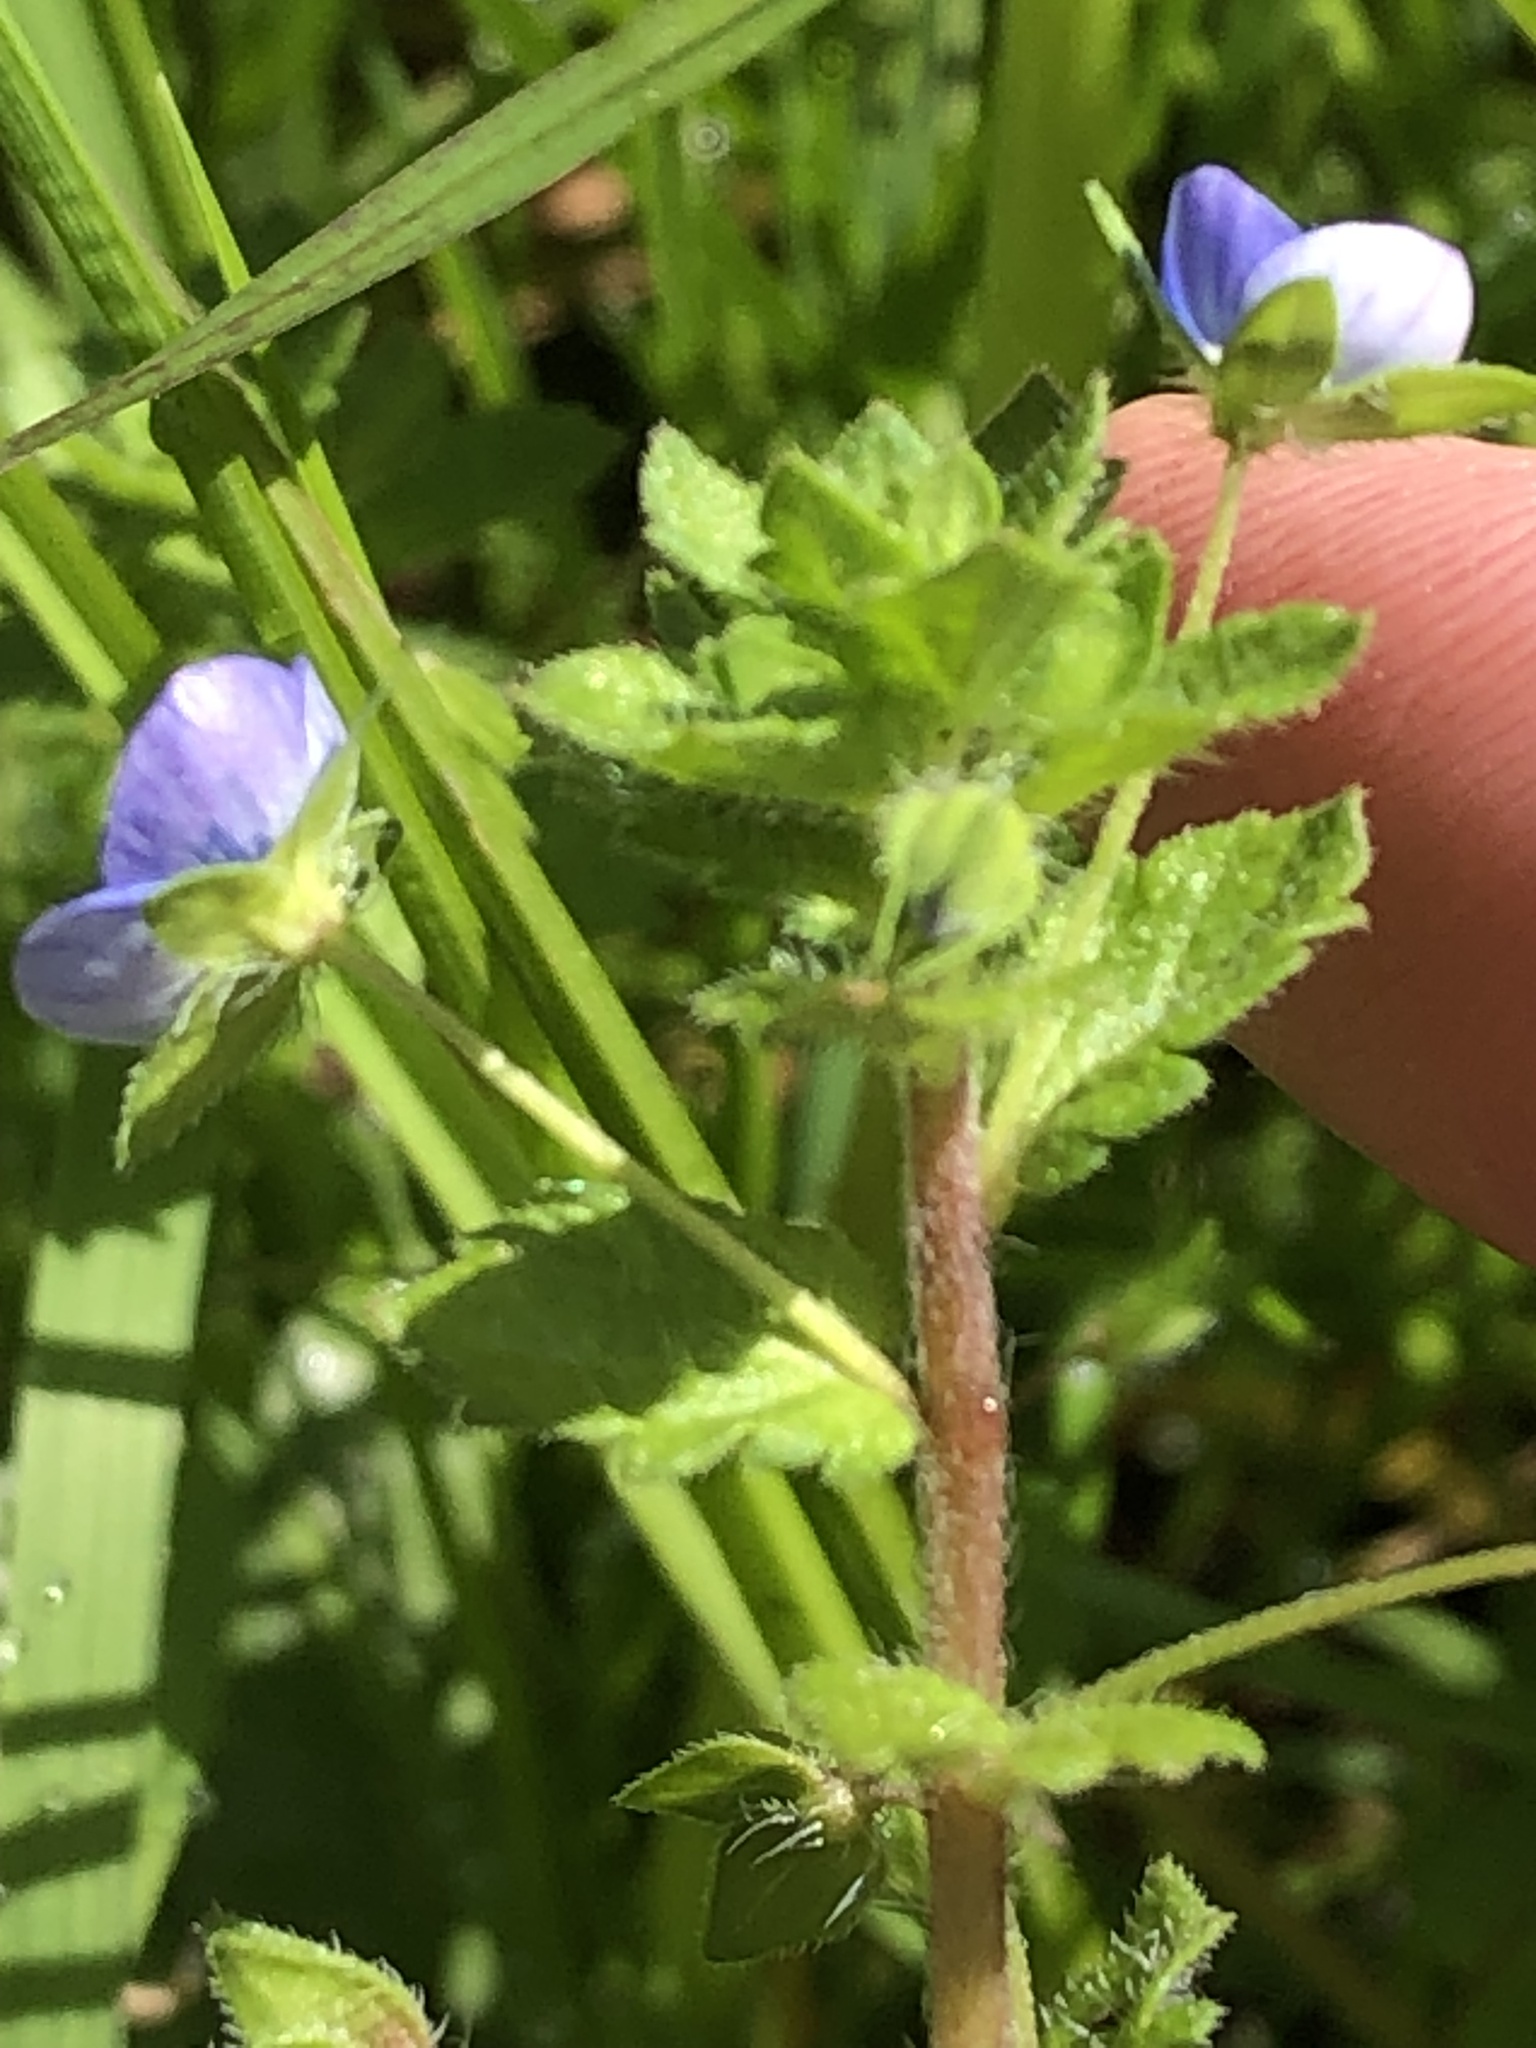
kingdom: Plantae
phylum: Tracheophyta
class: Magnoliopsida
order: Lamiales
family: Plantaginaceae
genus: Veronica
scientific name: Veronica persica
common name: Common field-speedwell
